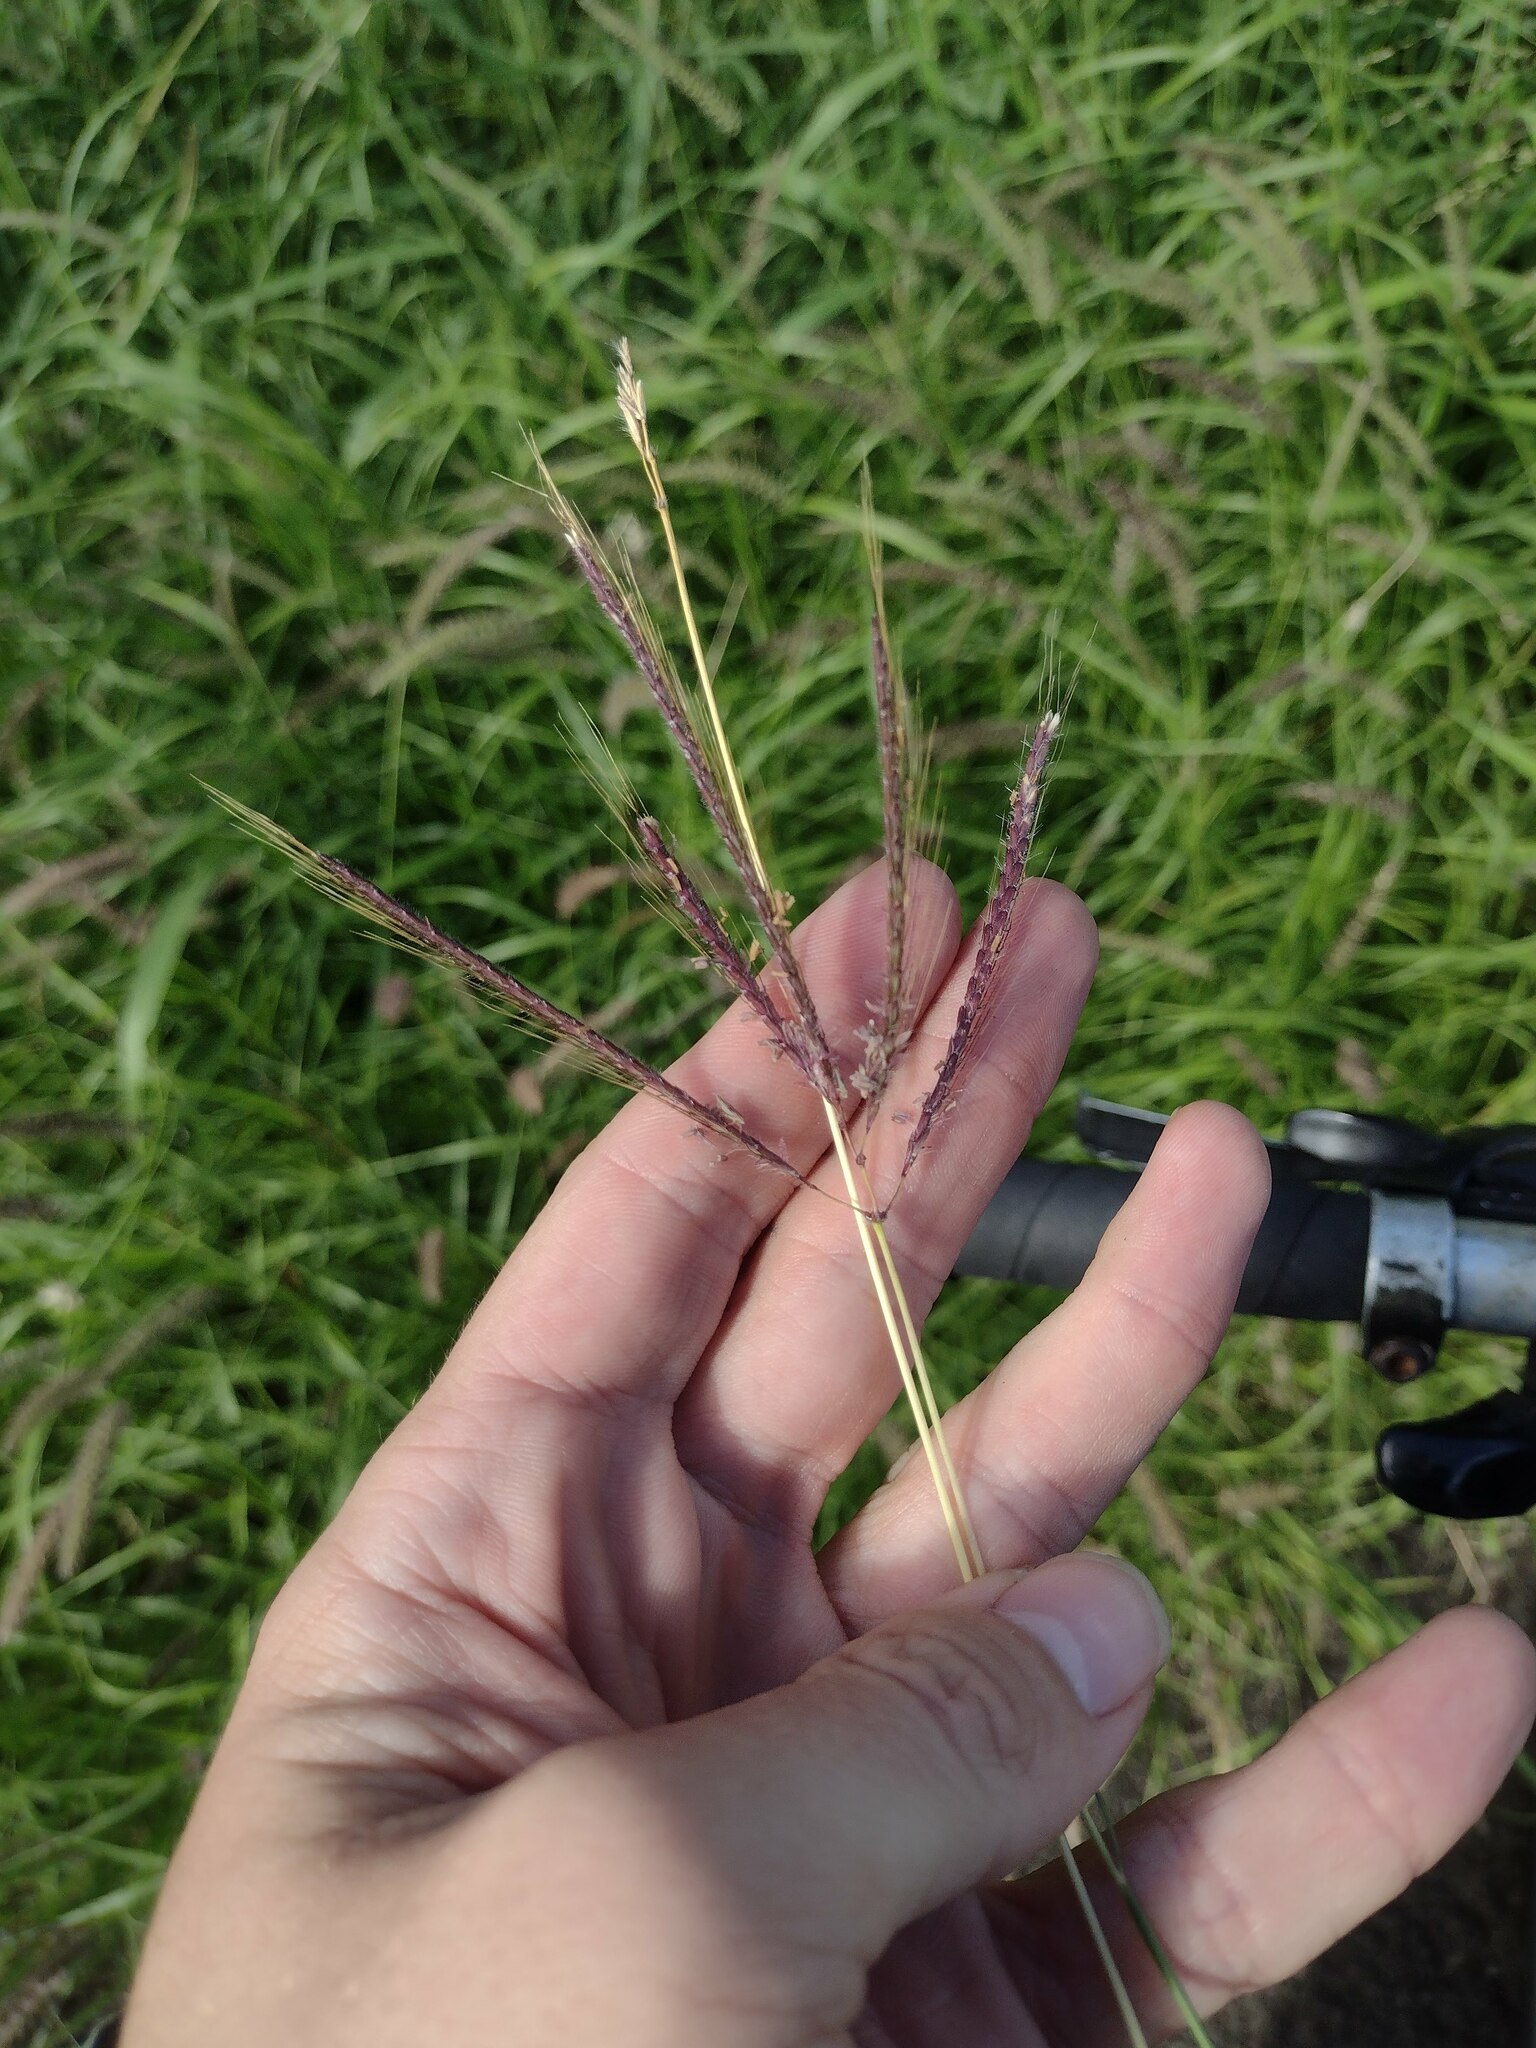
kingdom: Plantae
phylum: Tracheophyta
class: Liliopsida
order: Poales
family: Poaceae
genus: Dichanthium
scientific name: Dichanthium annulatum
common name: Kleberg's bluestem
